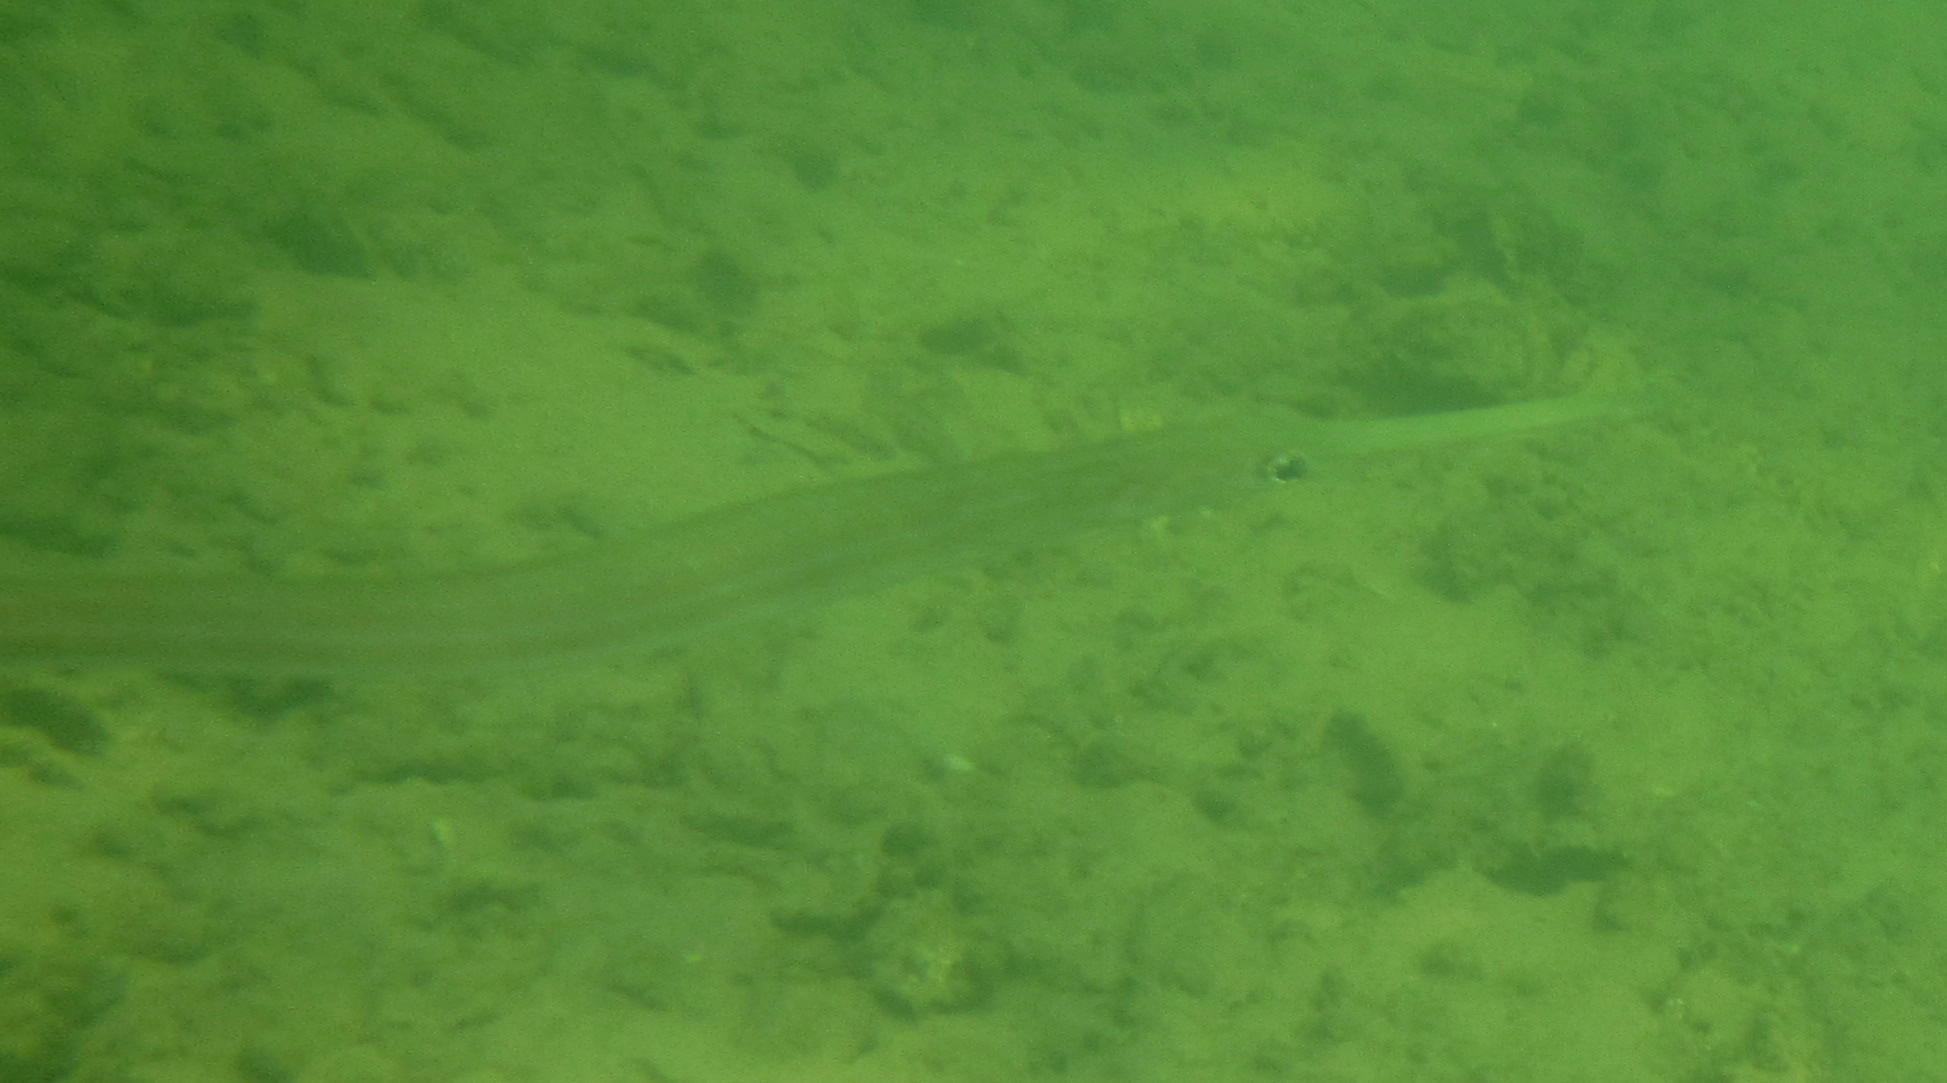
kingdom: Animalia
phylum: Chordata
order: Syngnathiformes
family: Fistulariidae
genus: Fistularia
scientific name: Fistularia commersonii
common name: Bluespotted cornetfish
